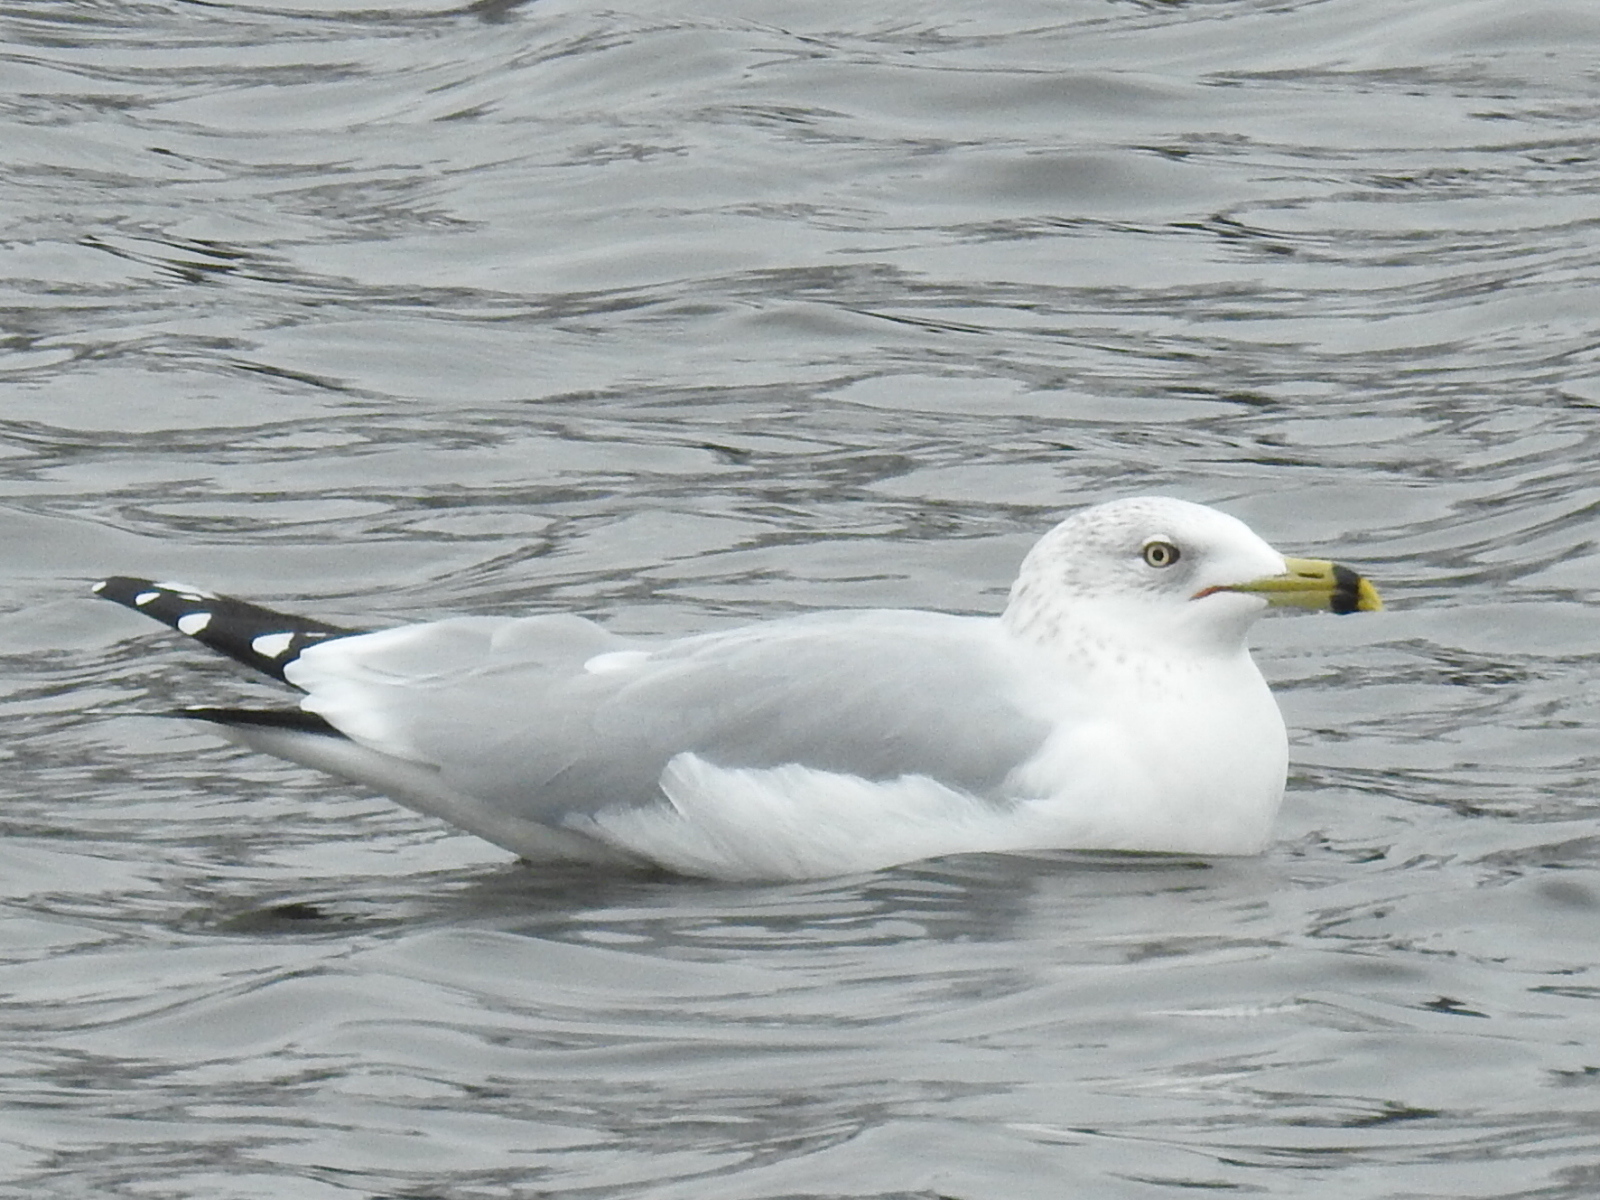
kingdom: Animalia
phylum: Chordata
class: Aves
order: Charadriiformes
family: Laridae
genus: Larus
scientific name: Larus delawarensis
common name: Ring-billed gull
